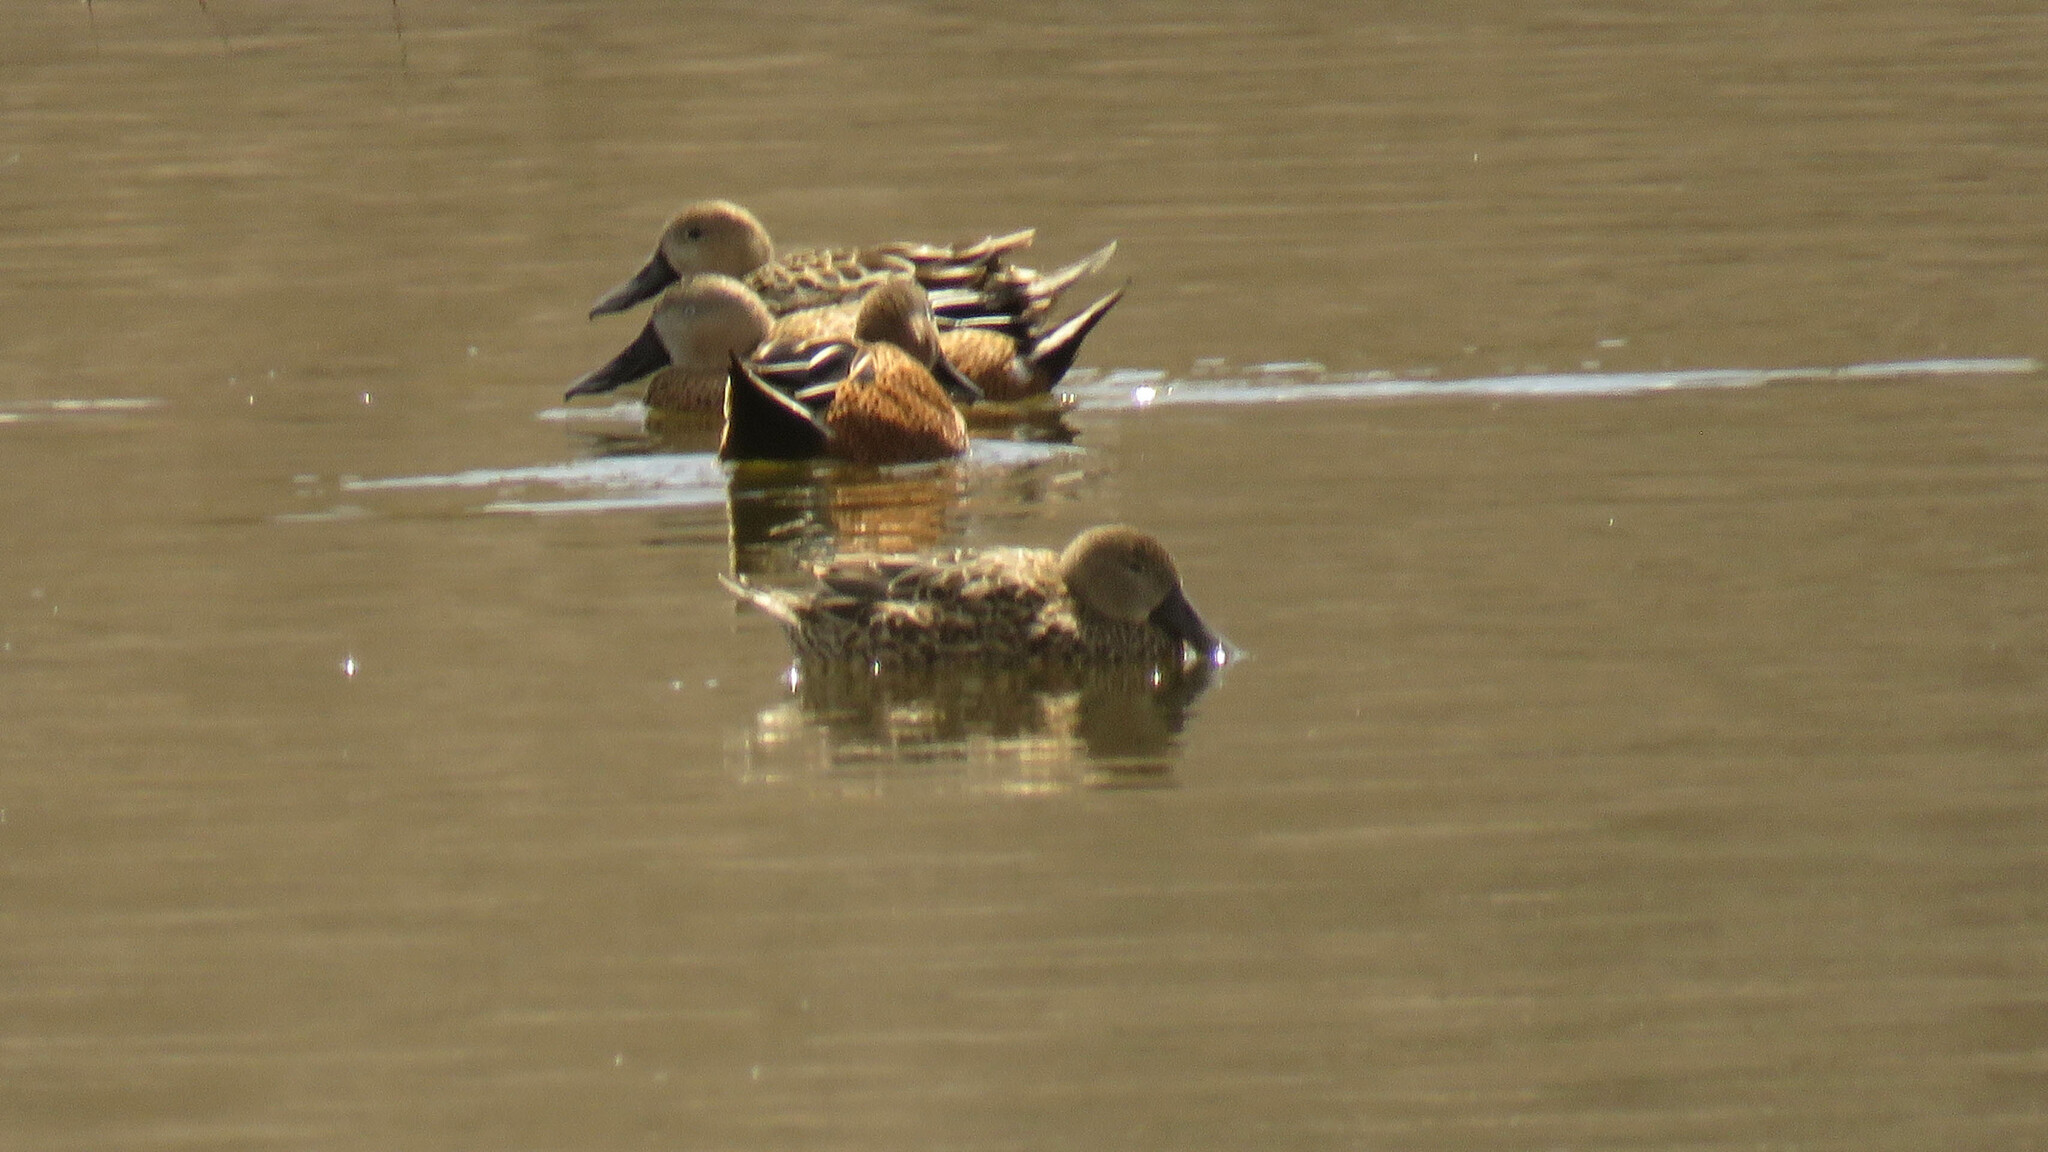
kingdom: Animalia
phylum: Chordata
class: Aves
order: Anseriformes
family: Anatidae
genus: Spatula
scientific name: Spatula platalea
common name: Red shoveler
